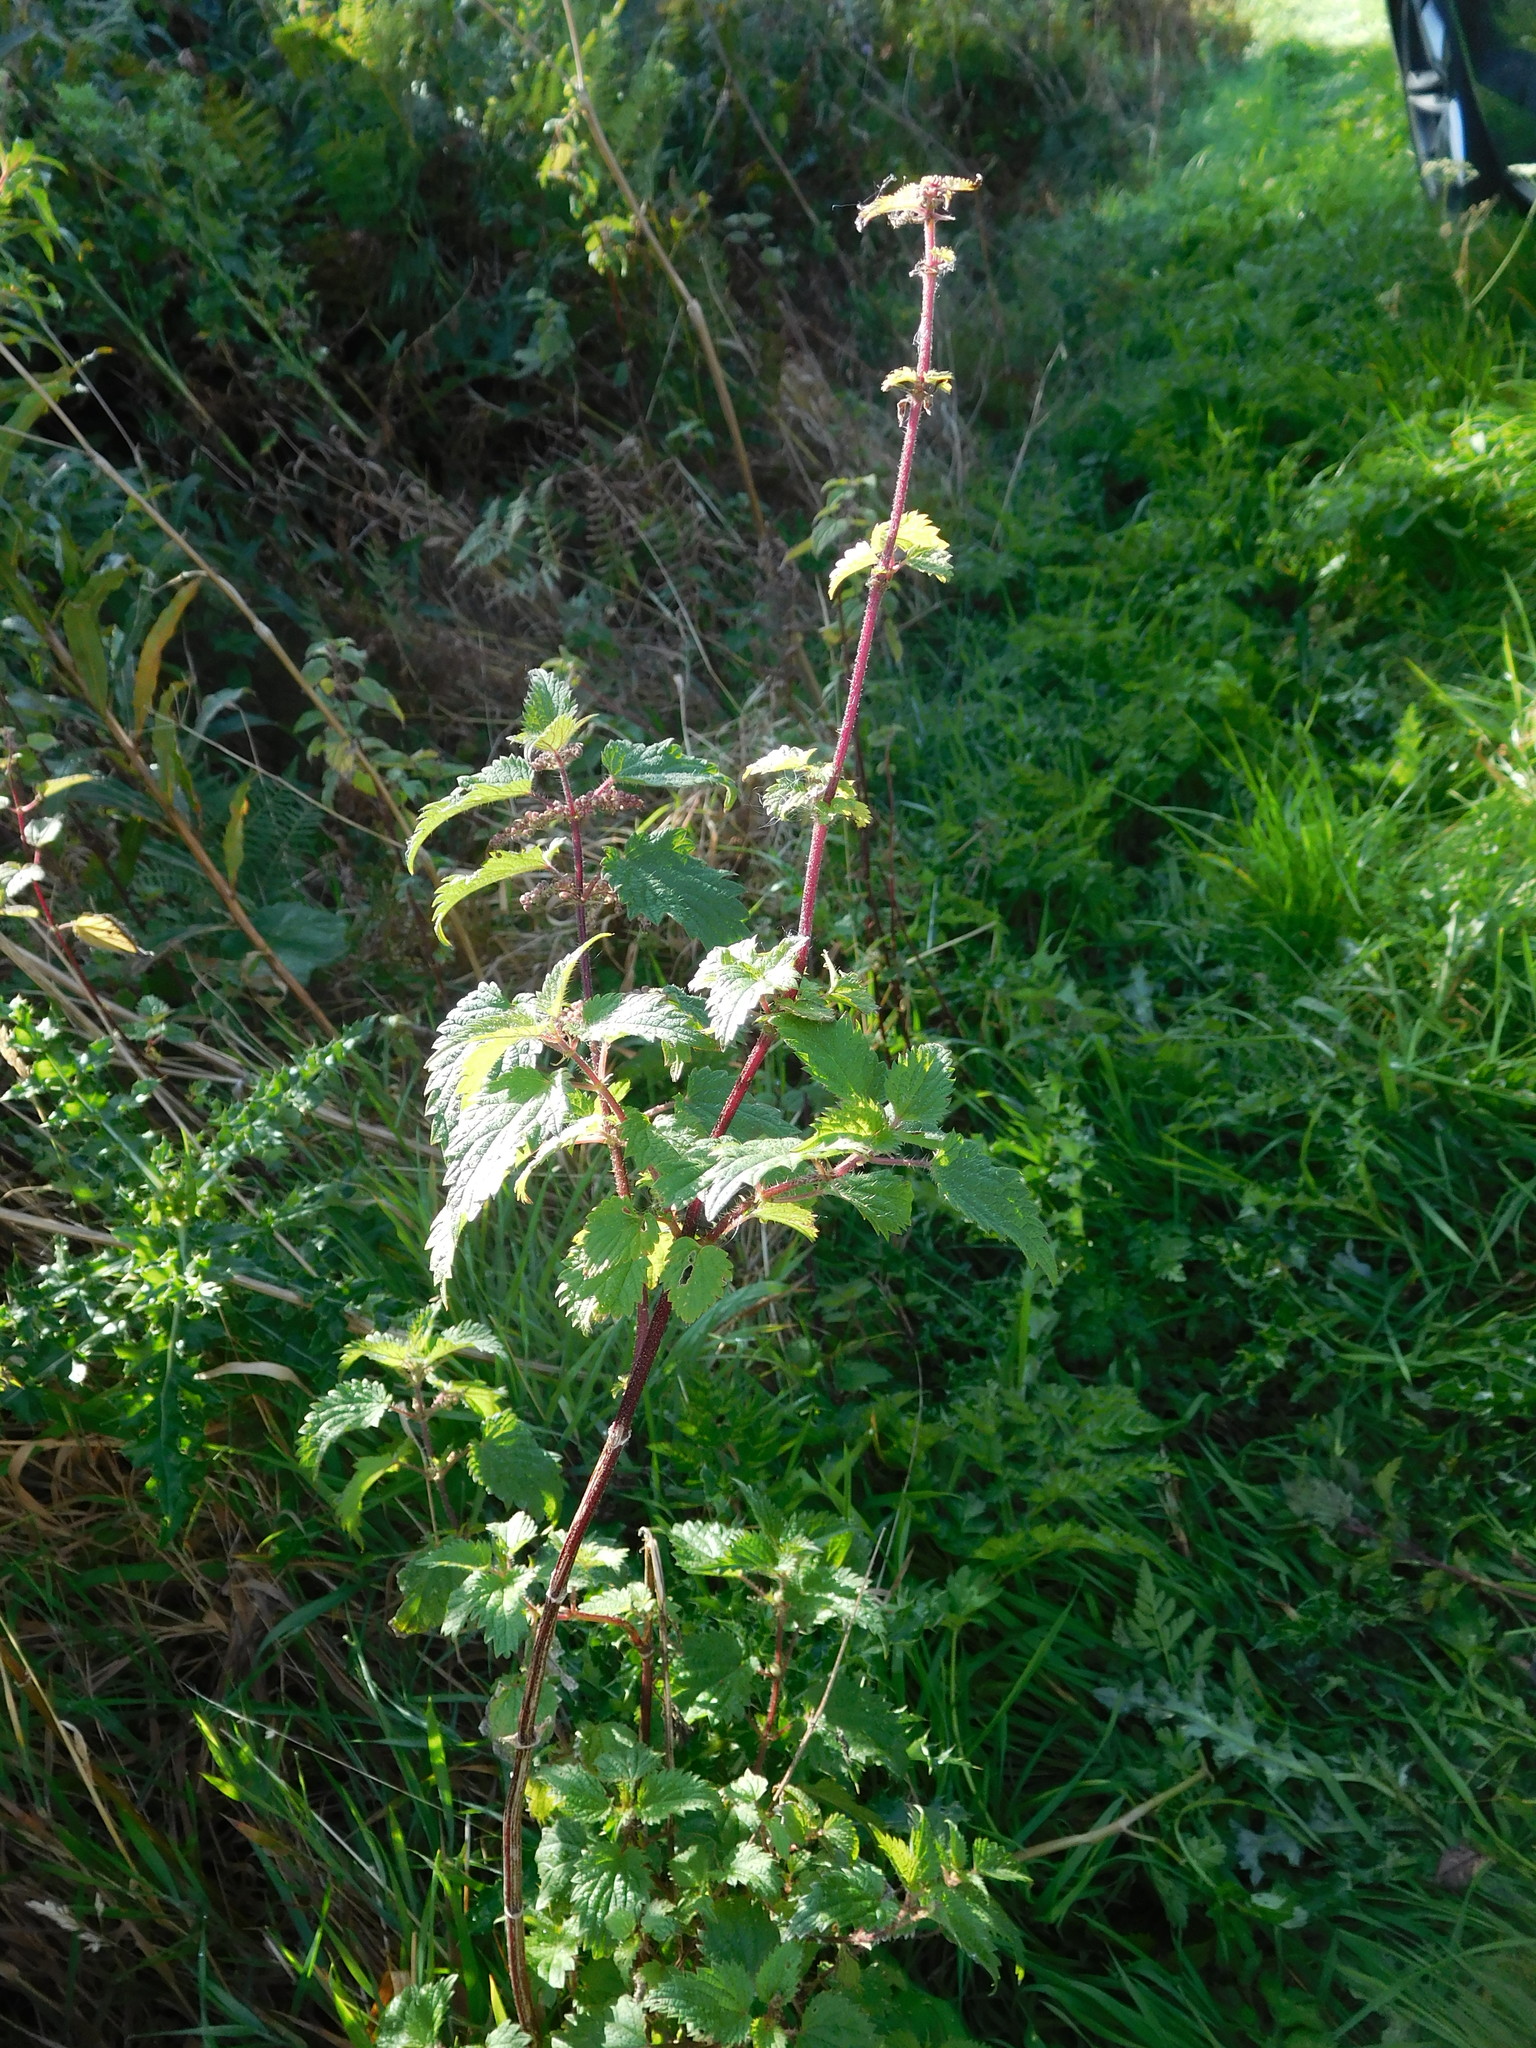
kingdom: Plantae
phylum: Tracheophyta
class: Magnoliopsida
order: Rosales
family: Urticaceae
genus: Urtica
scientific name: Urtica dioica
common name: Common nettle
